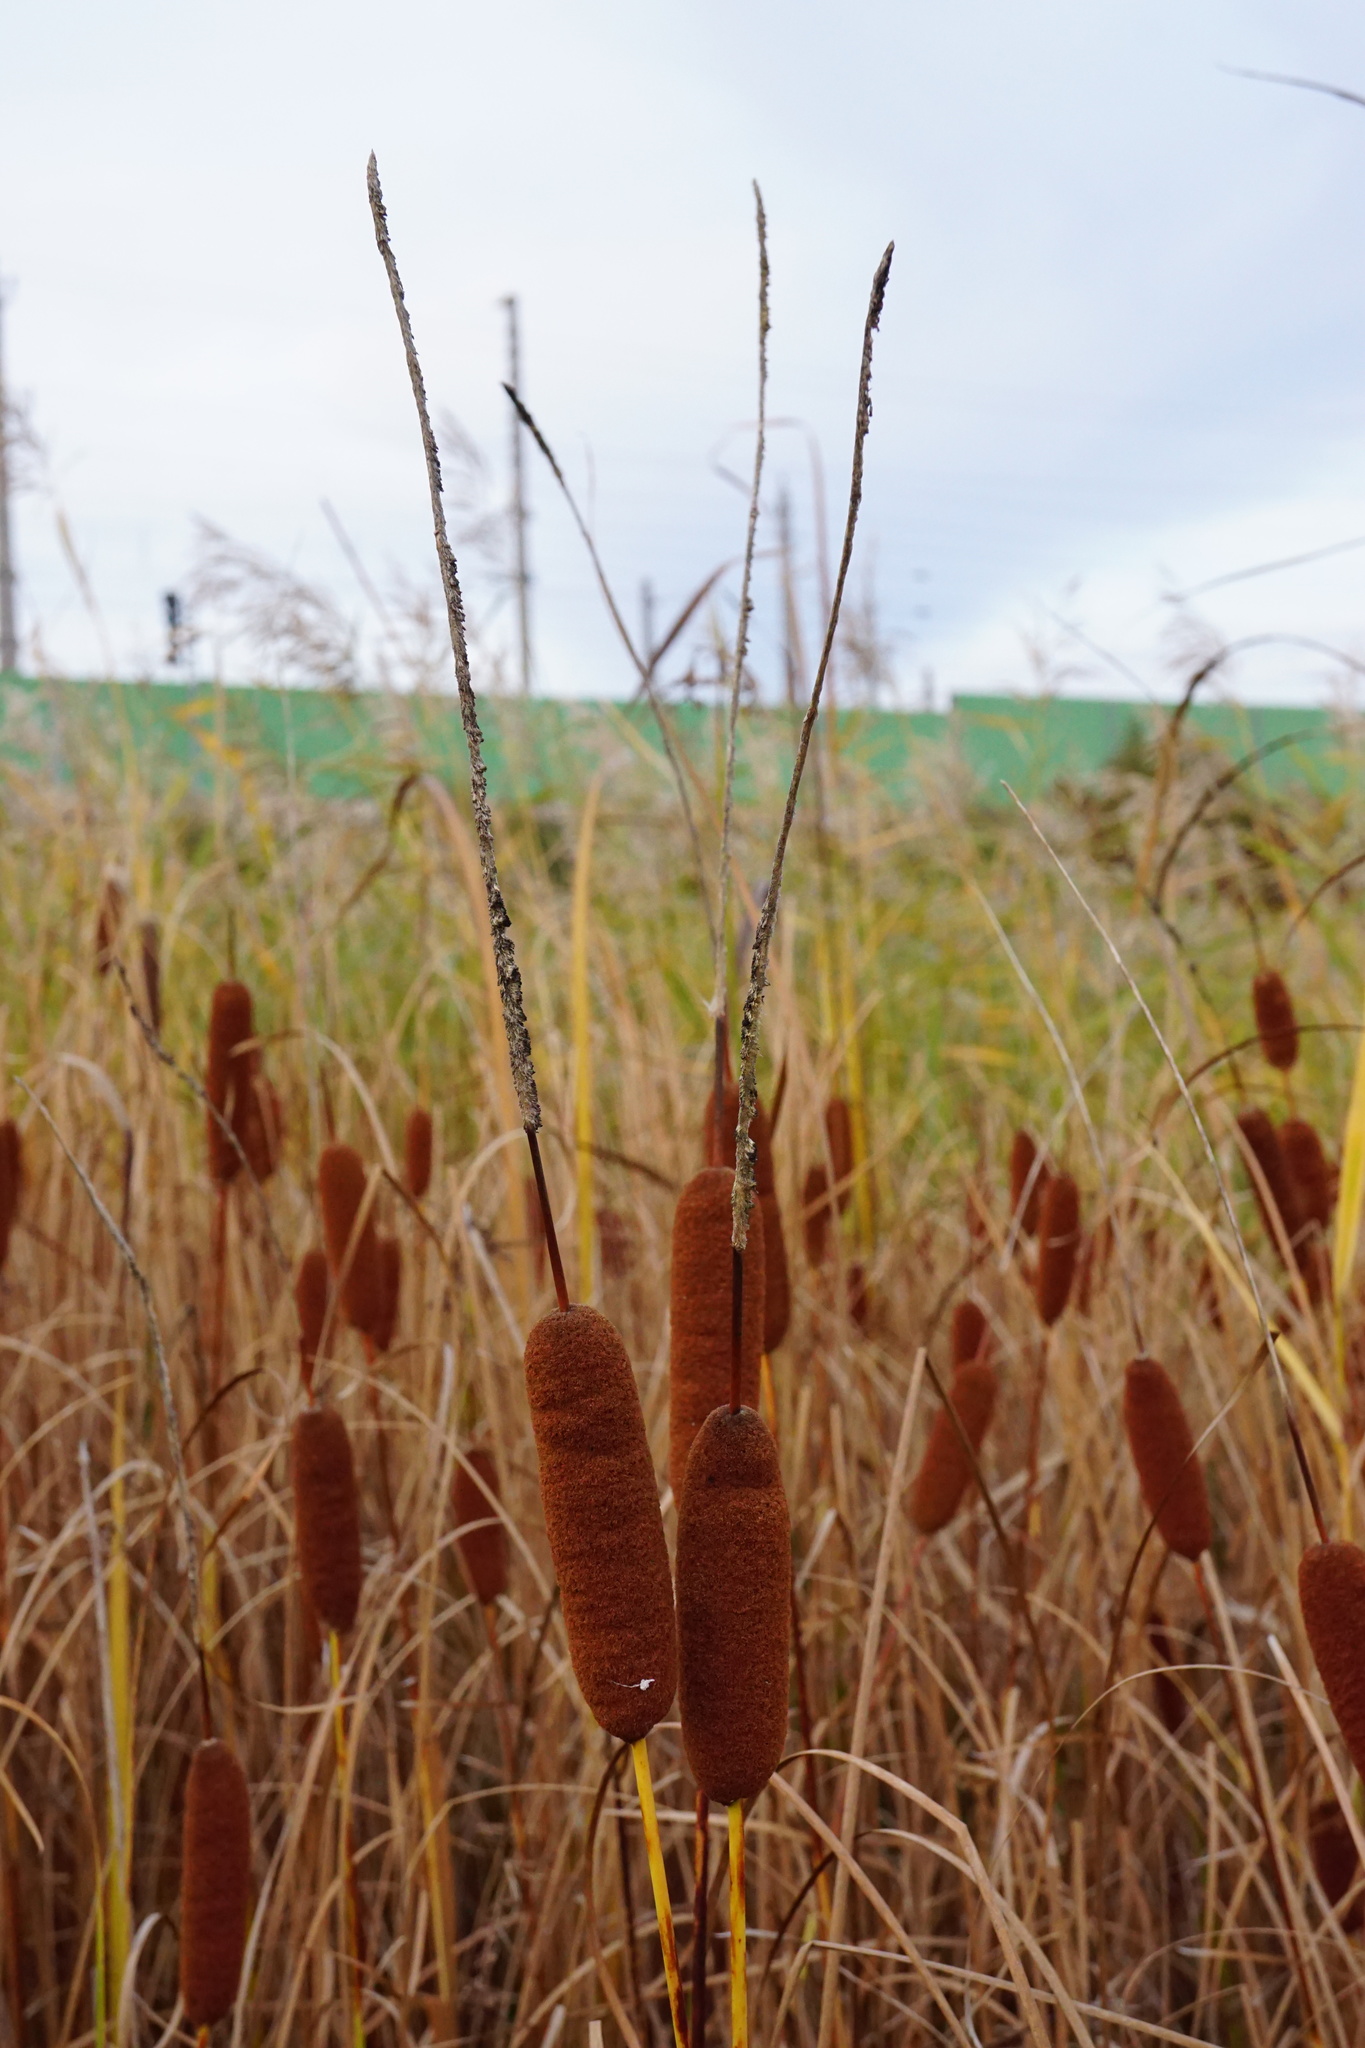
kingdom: Plantae
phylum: Tracheophyta
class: Liliopsida
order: Poales
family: Typhaceae
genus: Typha
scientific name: Typha laxmannii
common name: Laxman’s bulrush
